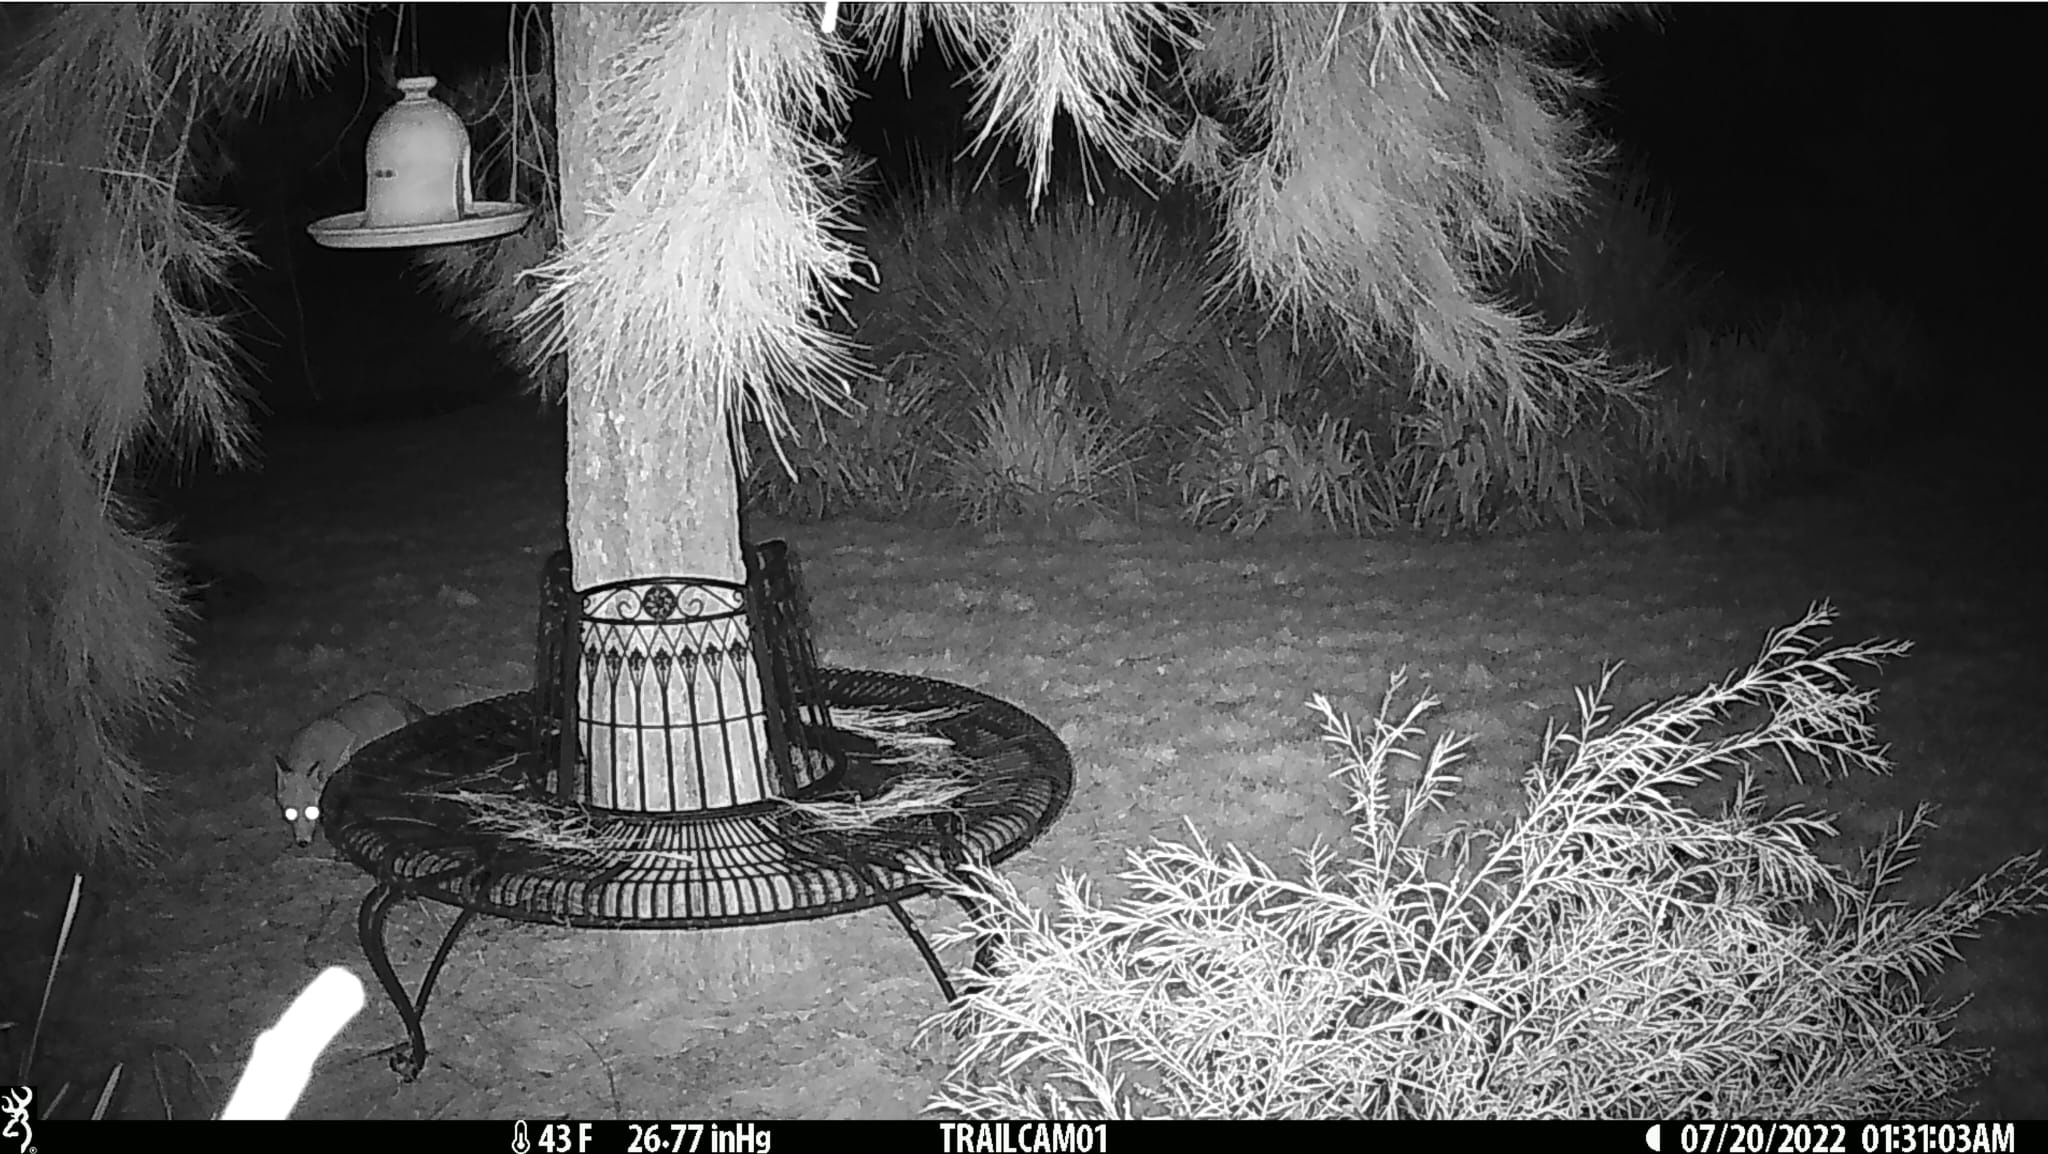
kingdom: Animalia
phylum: Chordata
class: Mammalia
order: Carnivora
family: Canidae
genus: Vulpes
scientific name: Vulpes vulpes
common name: Red fox
